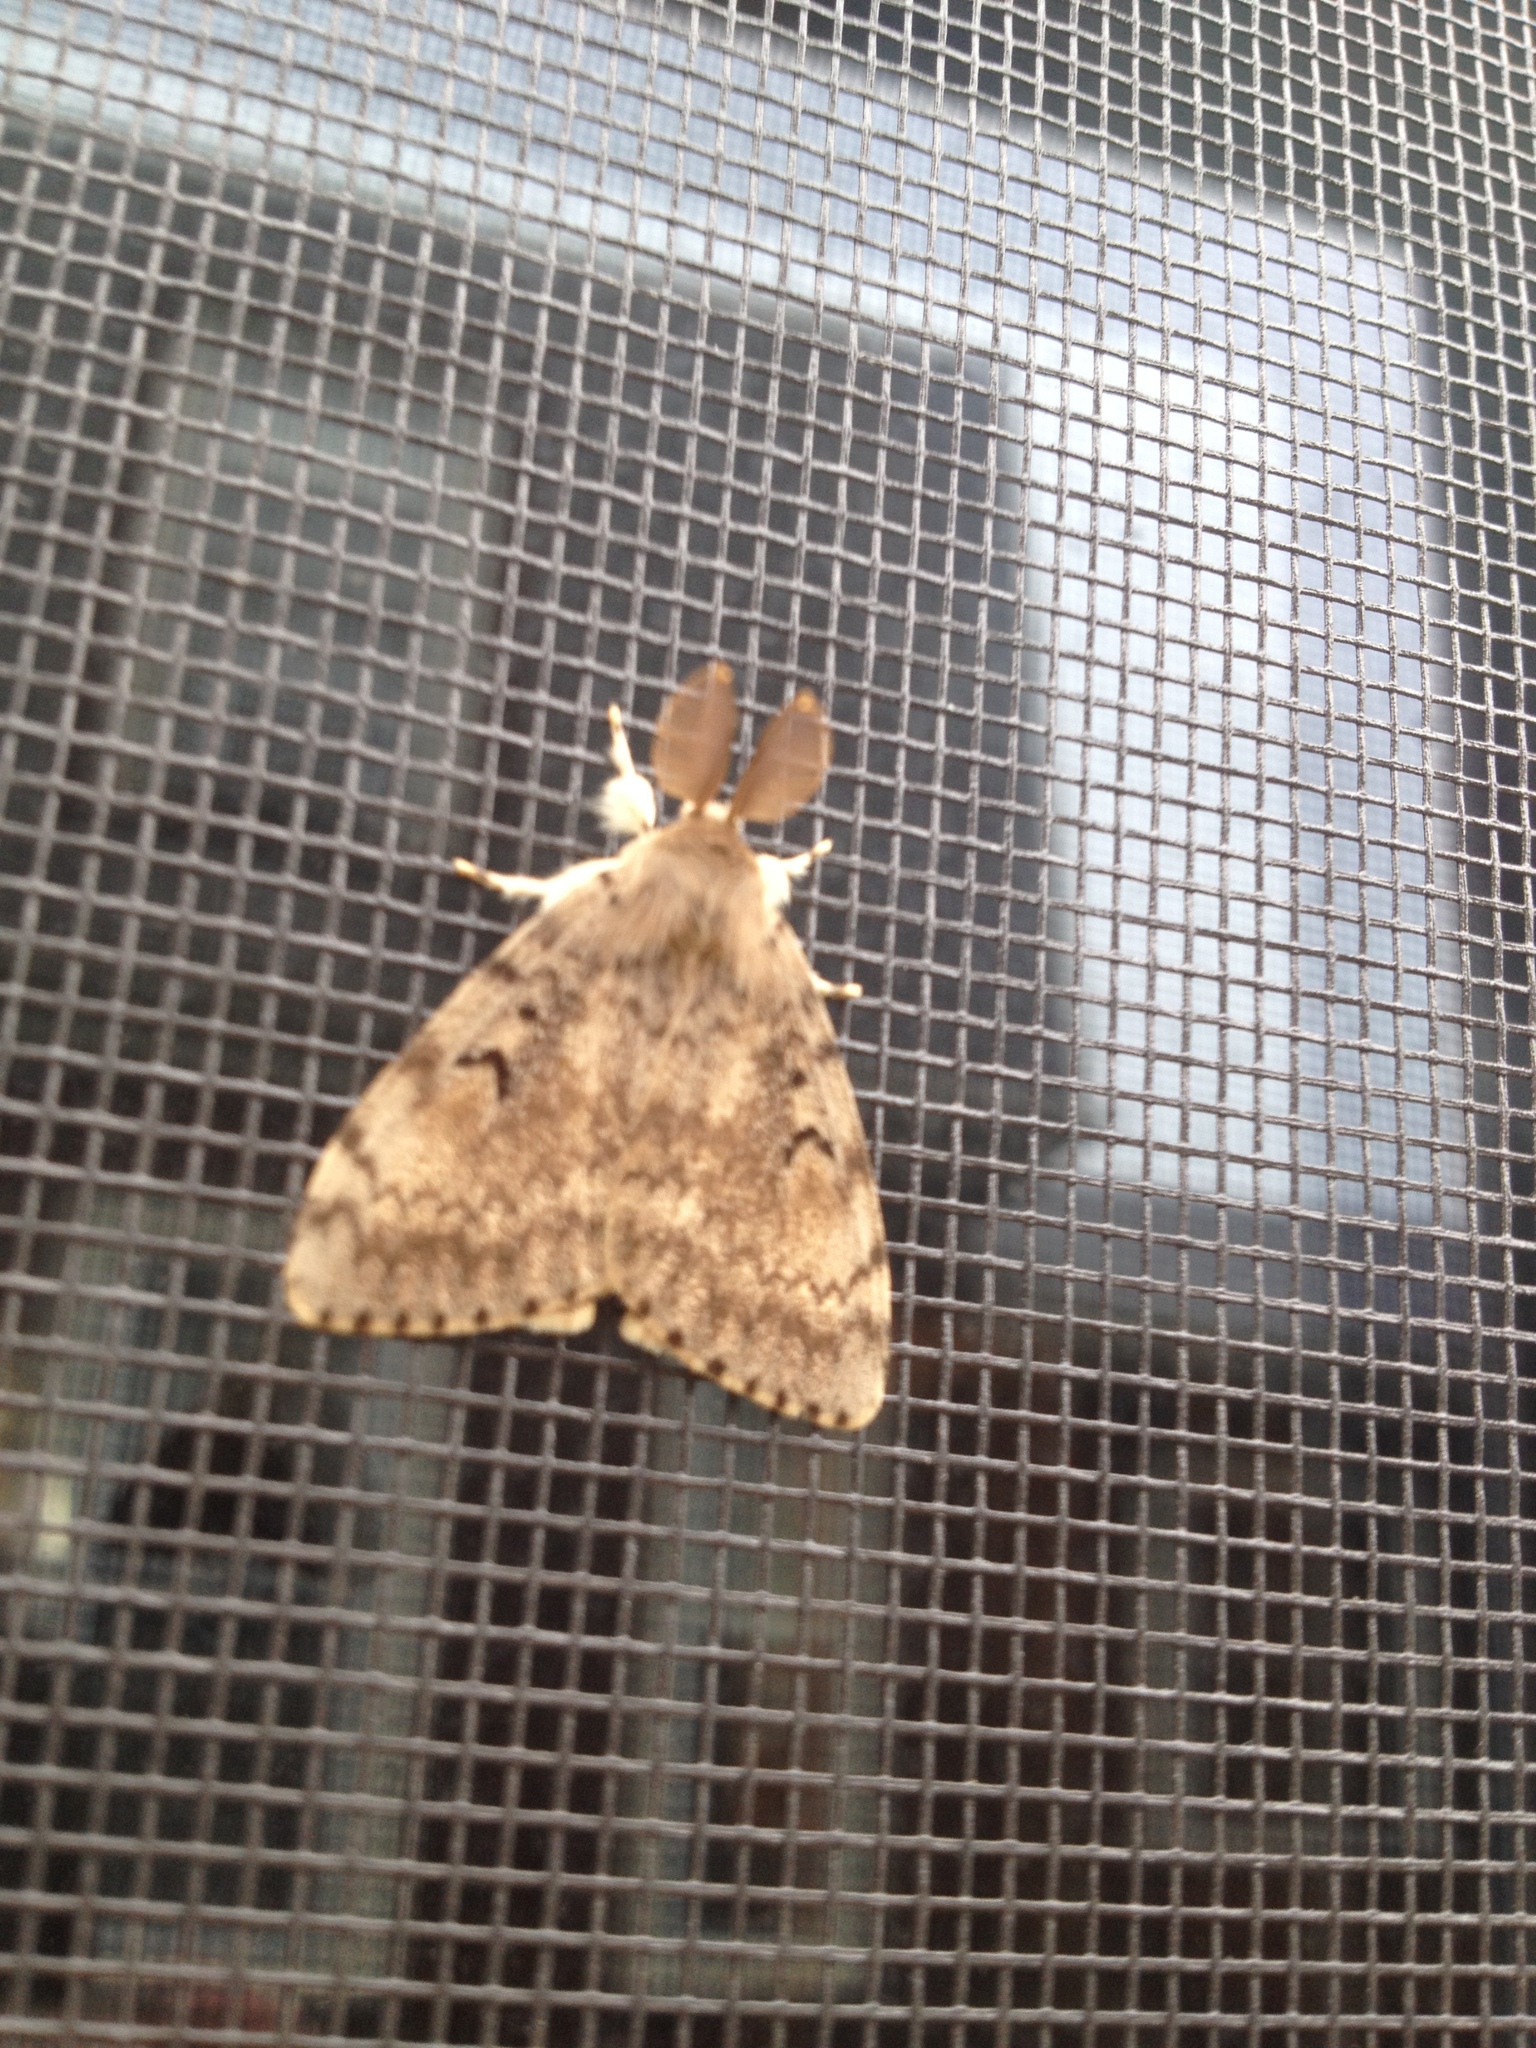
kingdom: Animalia
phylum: Arthropoda
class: Insecta
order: Lepidoptera
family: Erebidae
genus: Lymantria
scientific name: Lymantria dispar
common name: Gypsy moth
